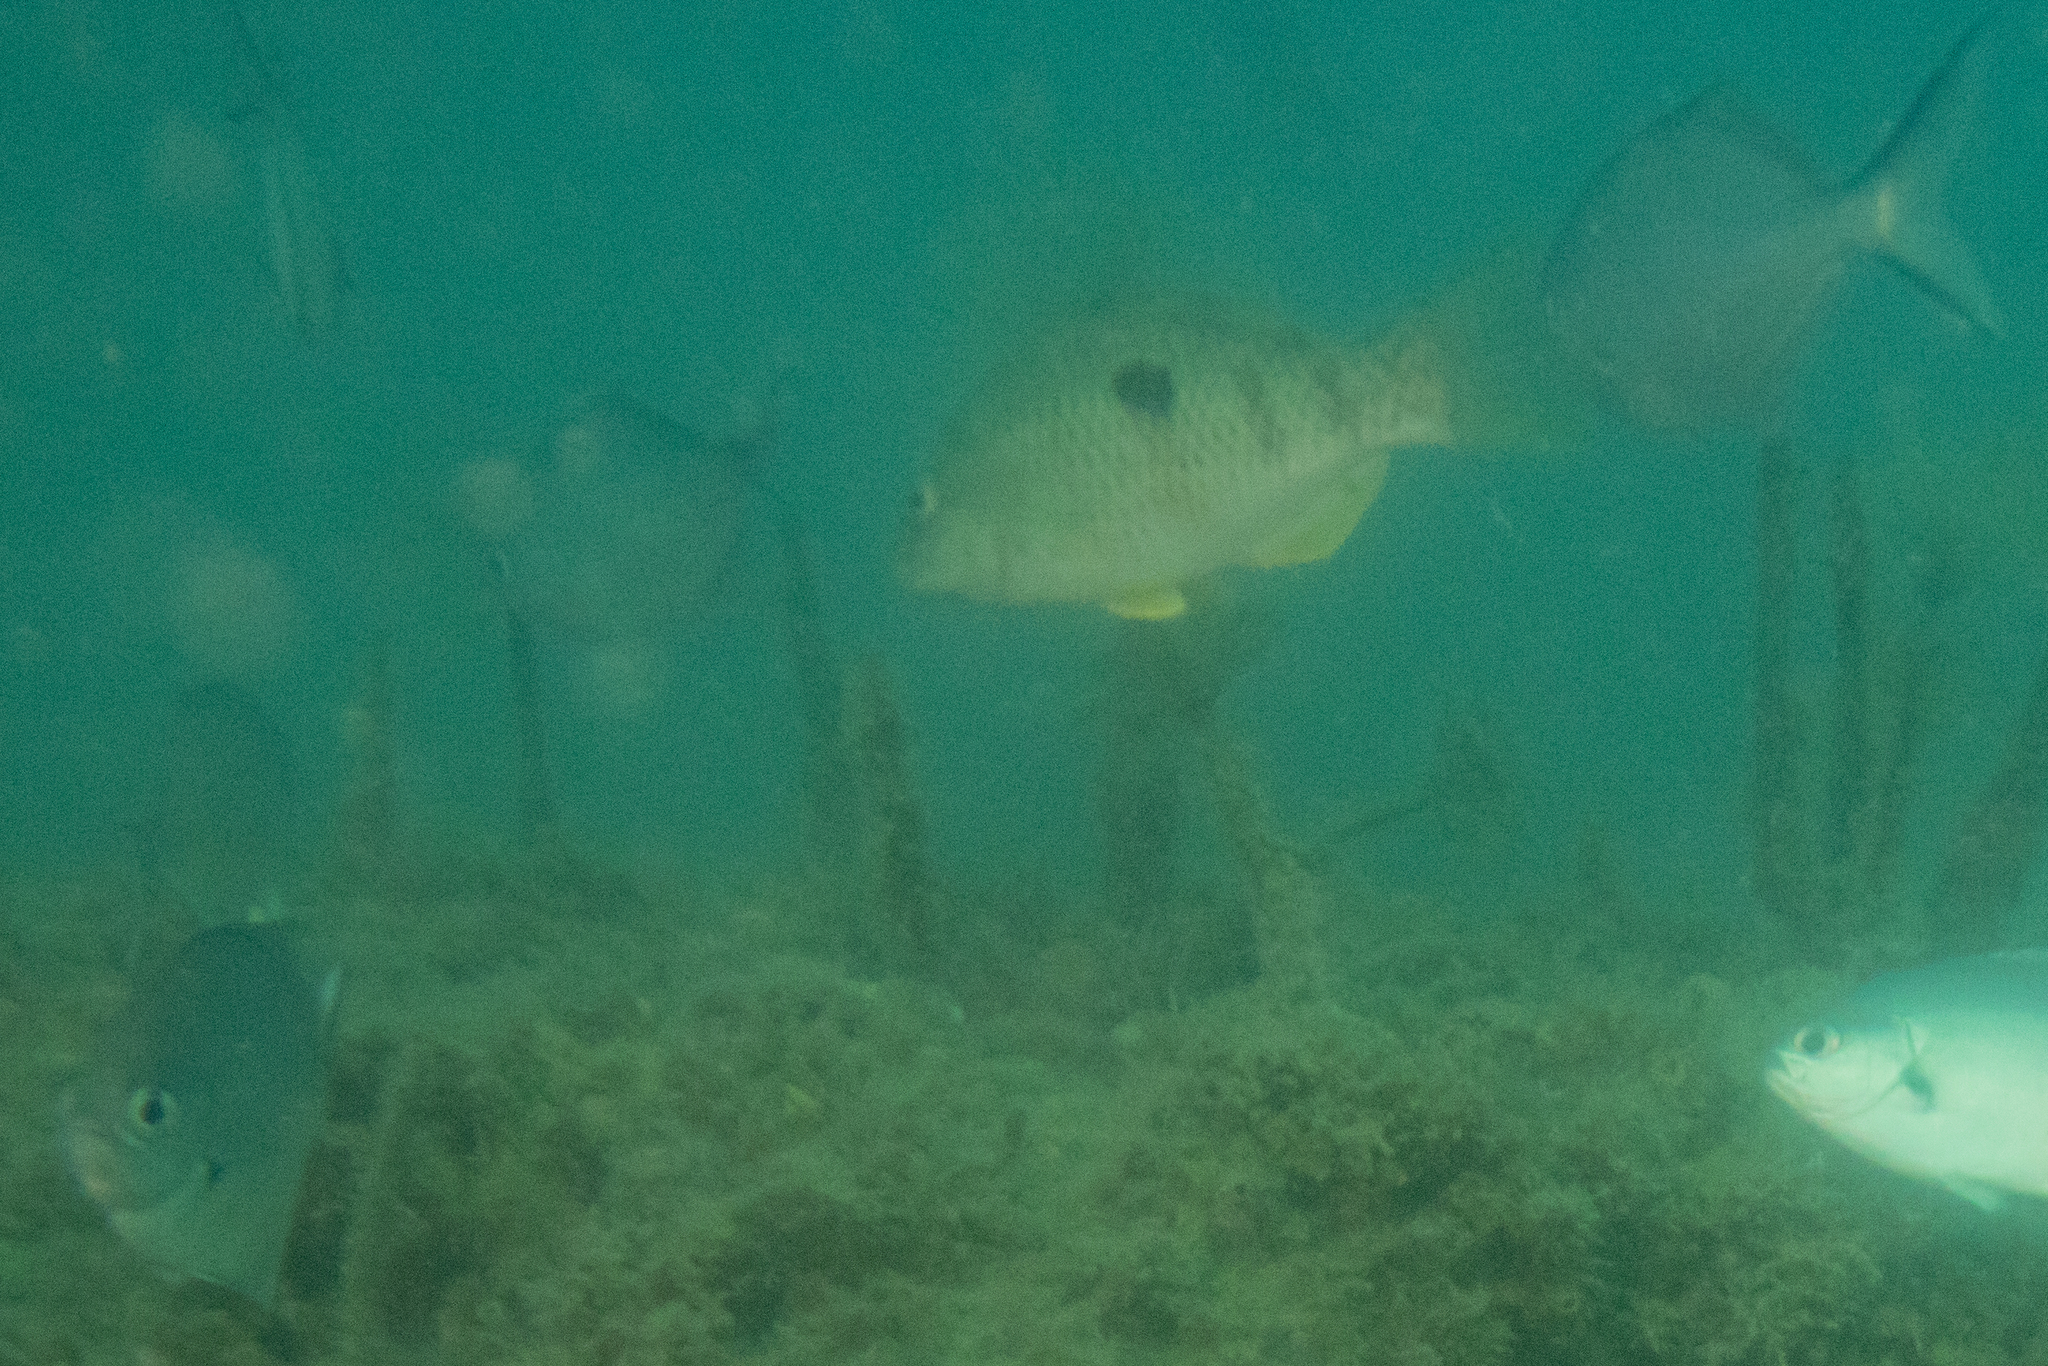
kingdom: Animalia
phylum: Chordata
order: Perciformes
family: Labridae
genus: Notolabrus
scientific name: Notolabrus celidotus
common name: Spotty
